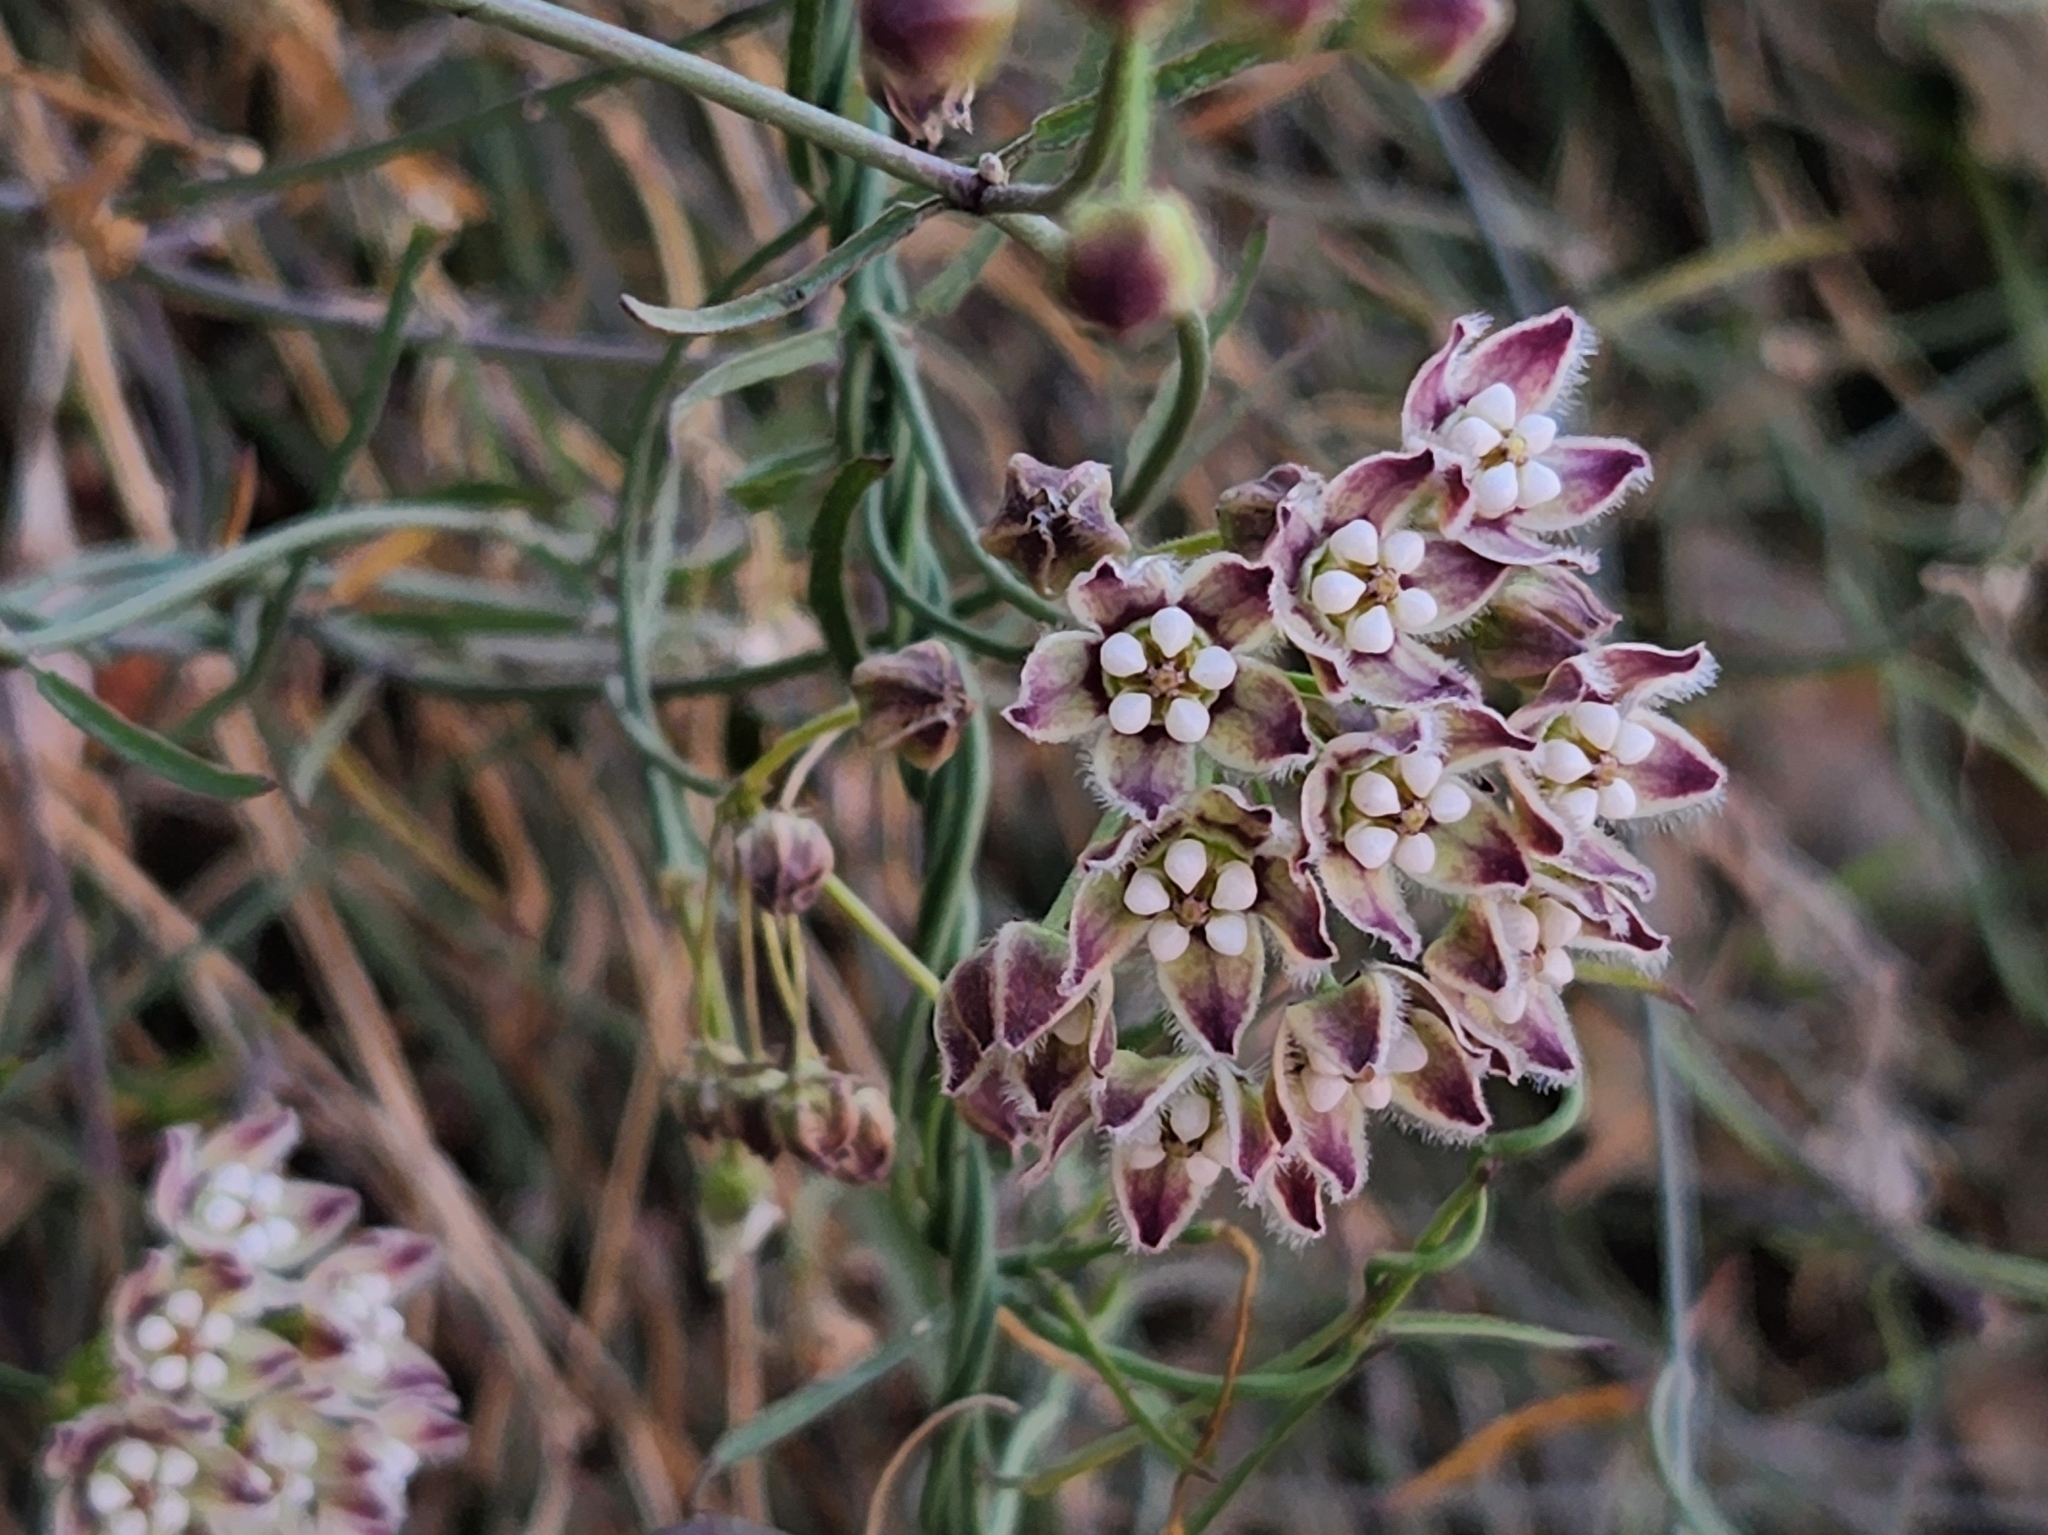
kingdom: Plantae
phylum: Tracheophyta
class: Magnoliopsida
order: Gentianales
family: Apocynaceae
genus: Funastrum
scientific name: Funastrum heterophyllum
